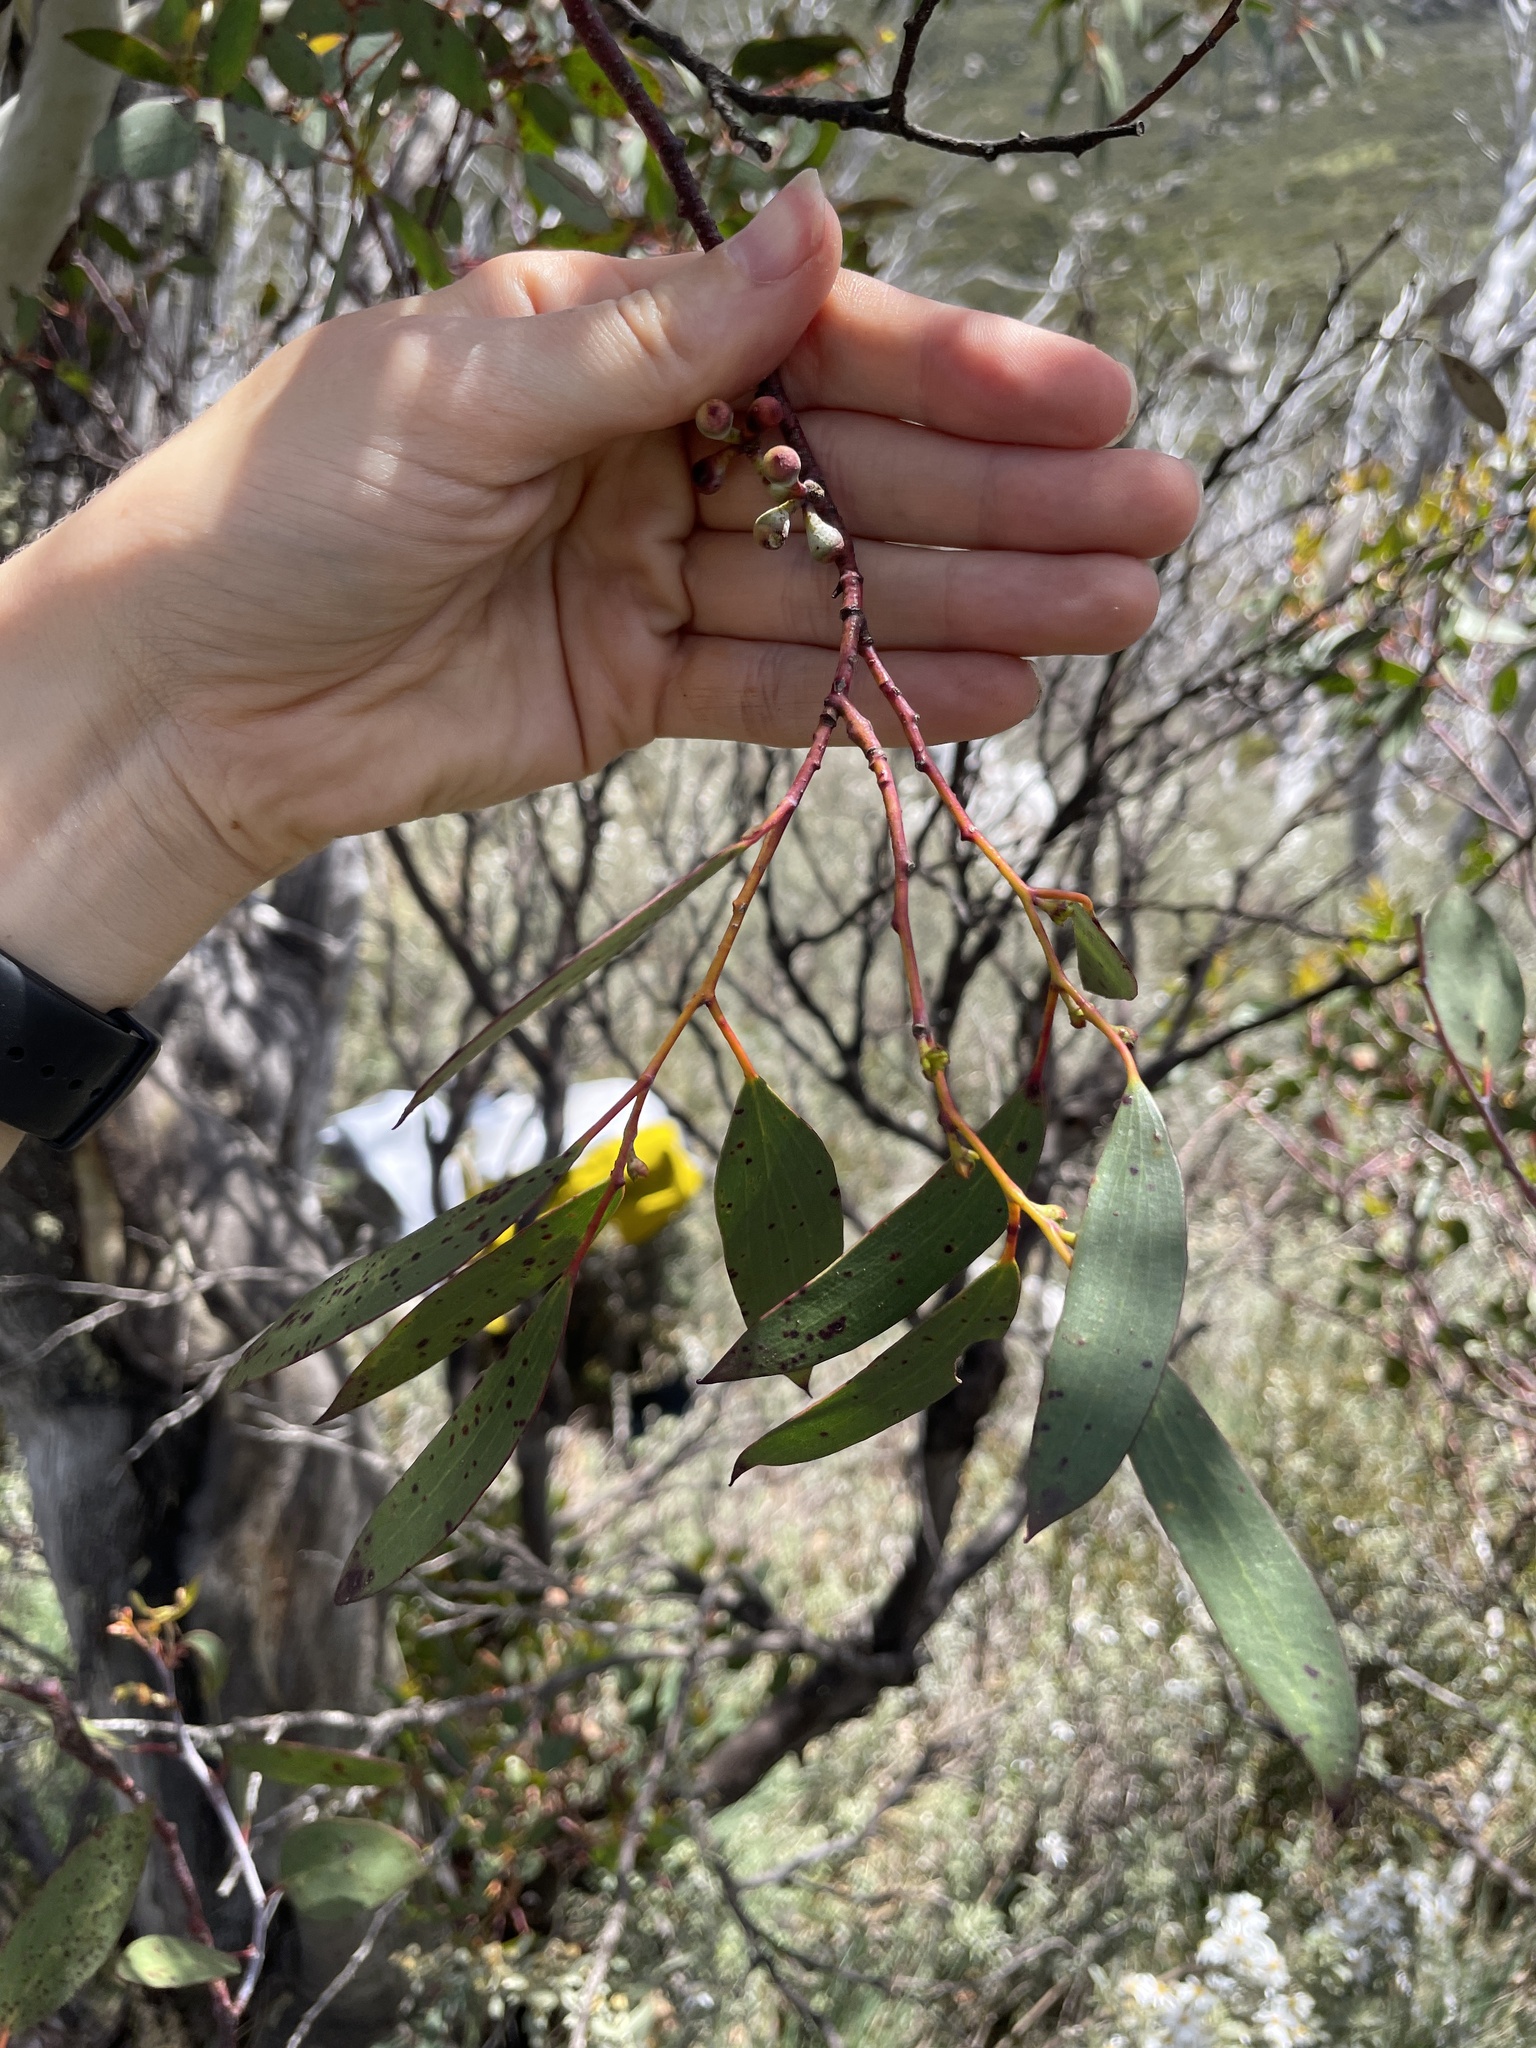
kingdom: Plantae
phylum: Tracheophyta
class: Magnoliopsida
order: Myrtales
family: Myrtaceae
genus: Eucalyptus
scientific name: Eucalyptus pauciflora
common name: Snow gum
